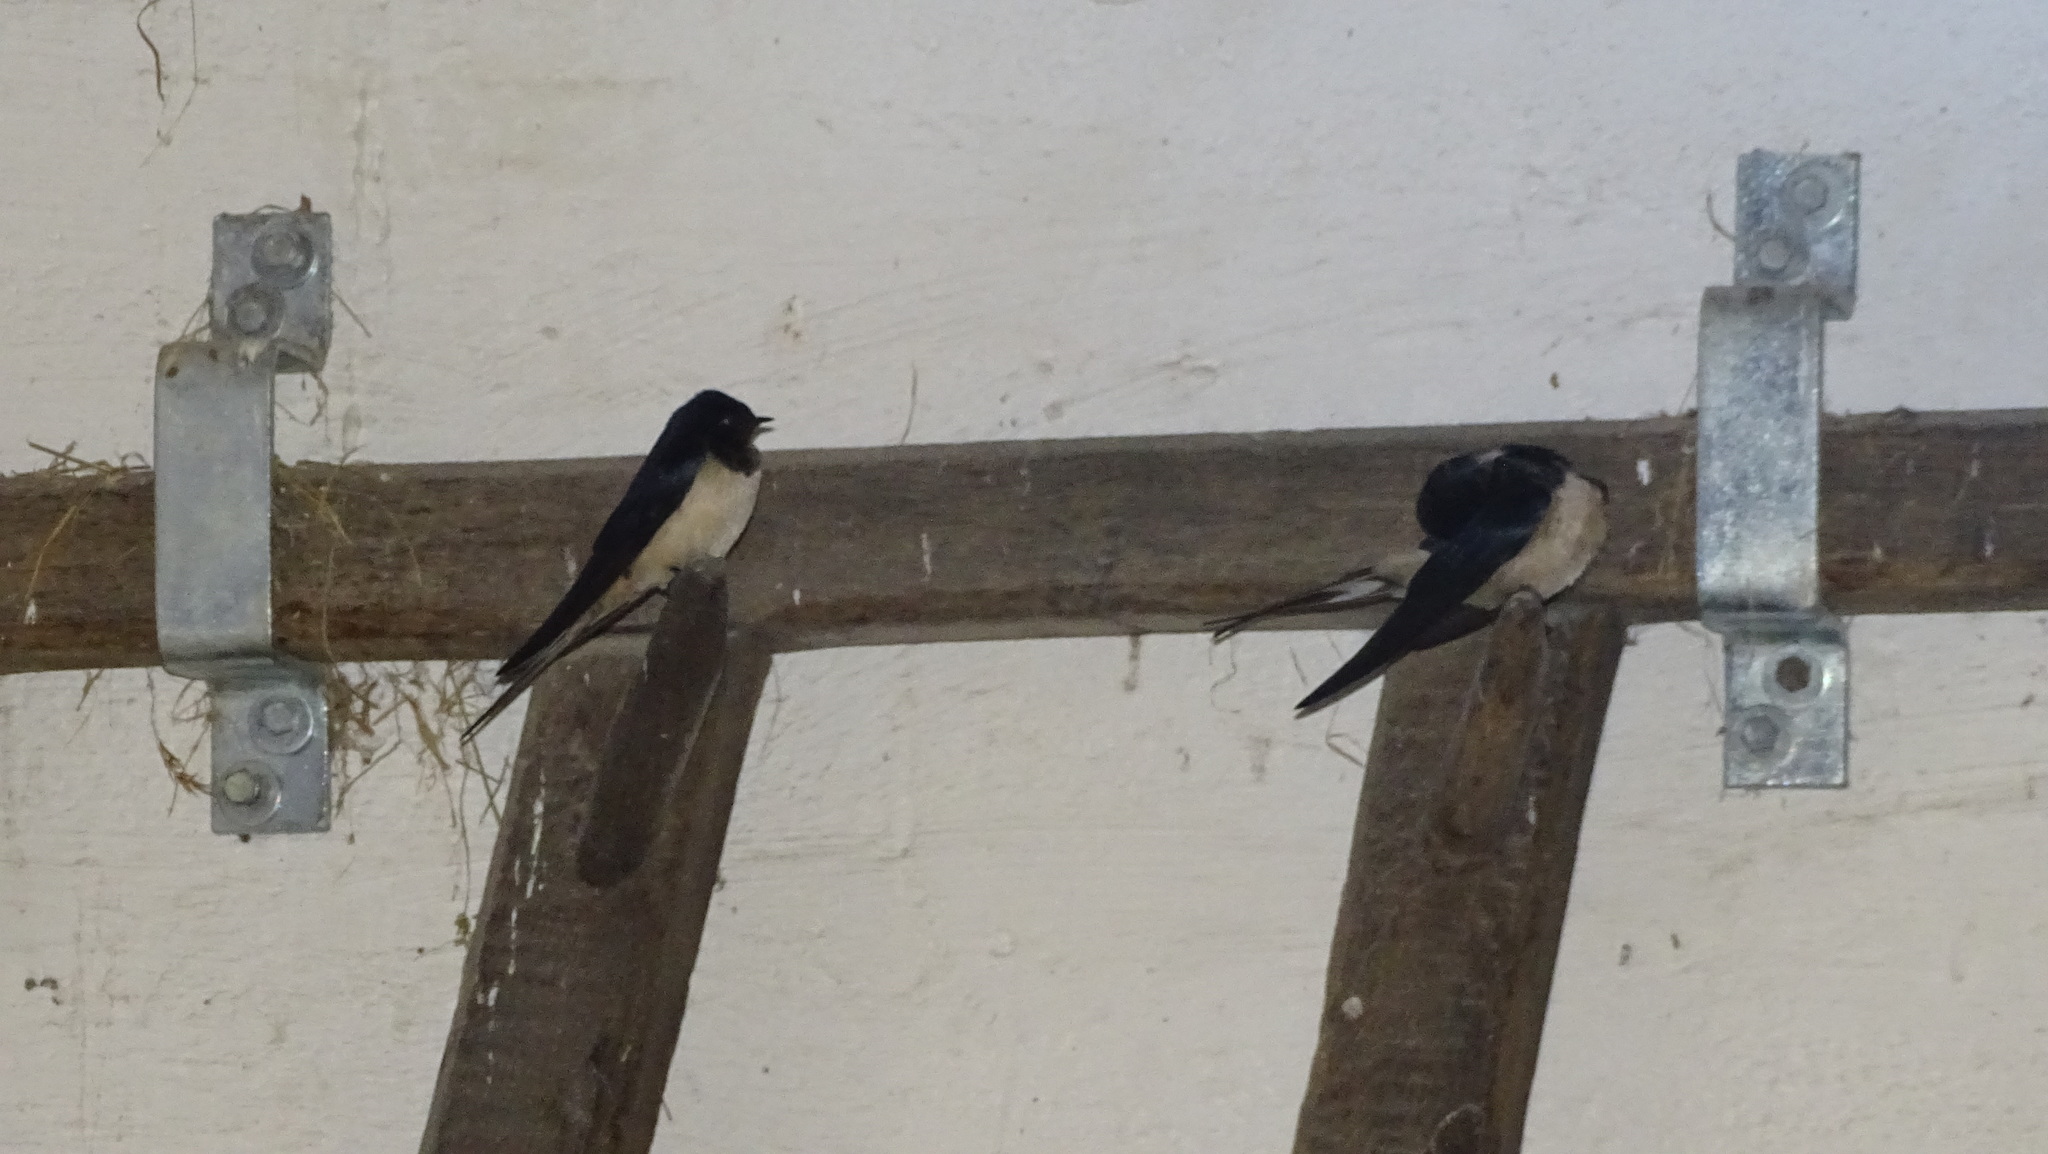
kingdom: Animalia
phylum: Chordata
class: Aves
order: Passeriformes
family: Hirundinidae
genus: Hirundo
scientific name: Hirundo rustica
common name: Barn swallow
